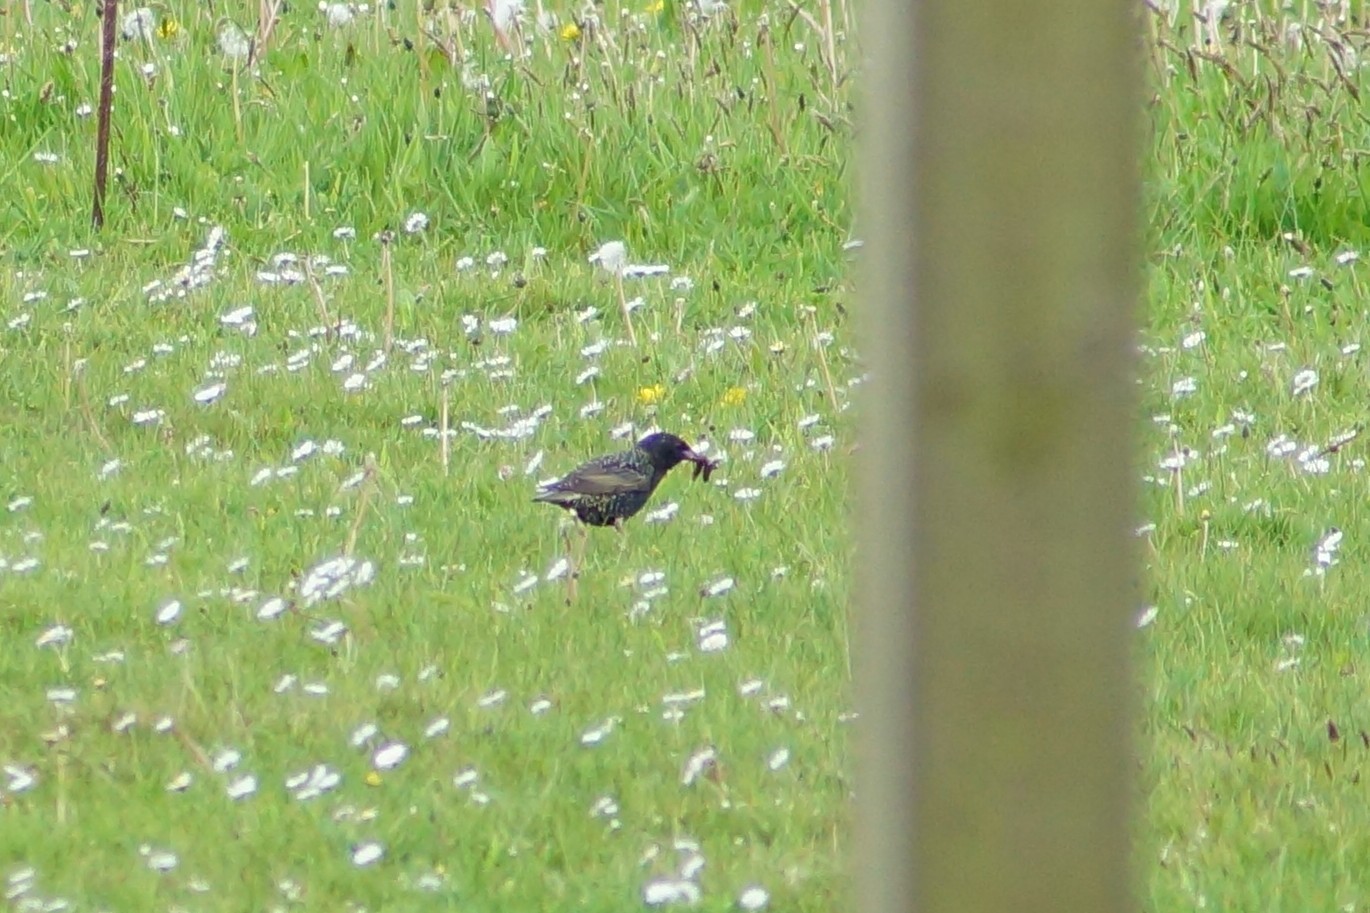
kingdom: Animalia
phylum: Chordata
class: Aves
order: Passeriformes
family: Sturnidae
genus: Sturnus
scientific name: Sturnus vulgaris
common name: Common starling
